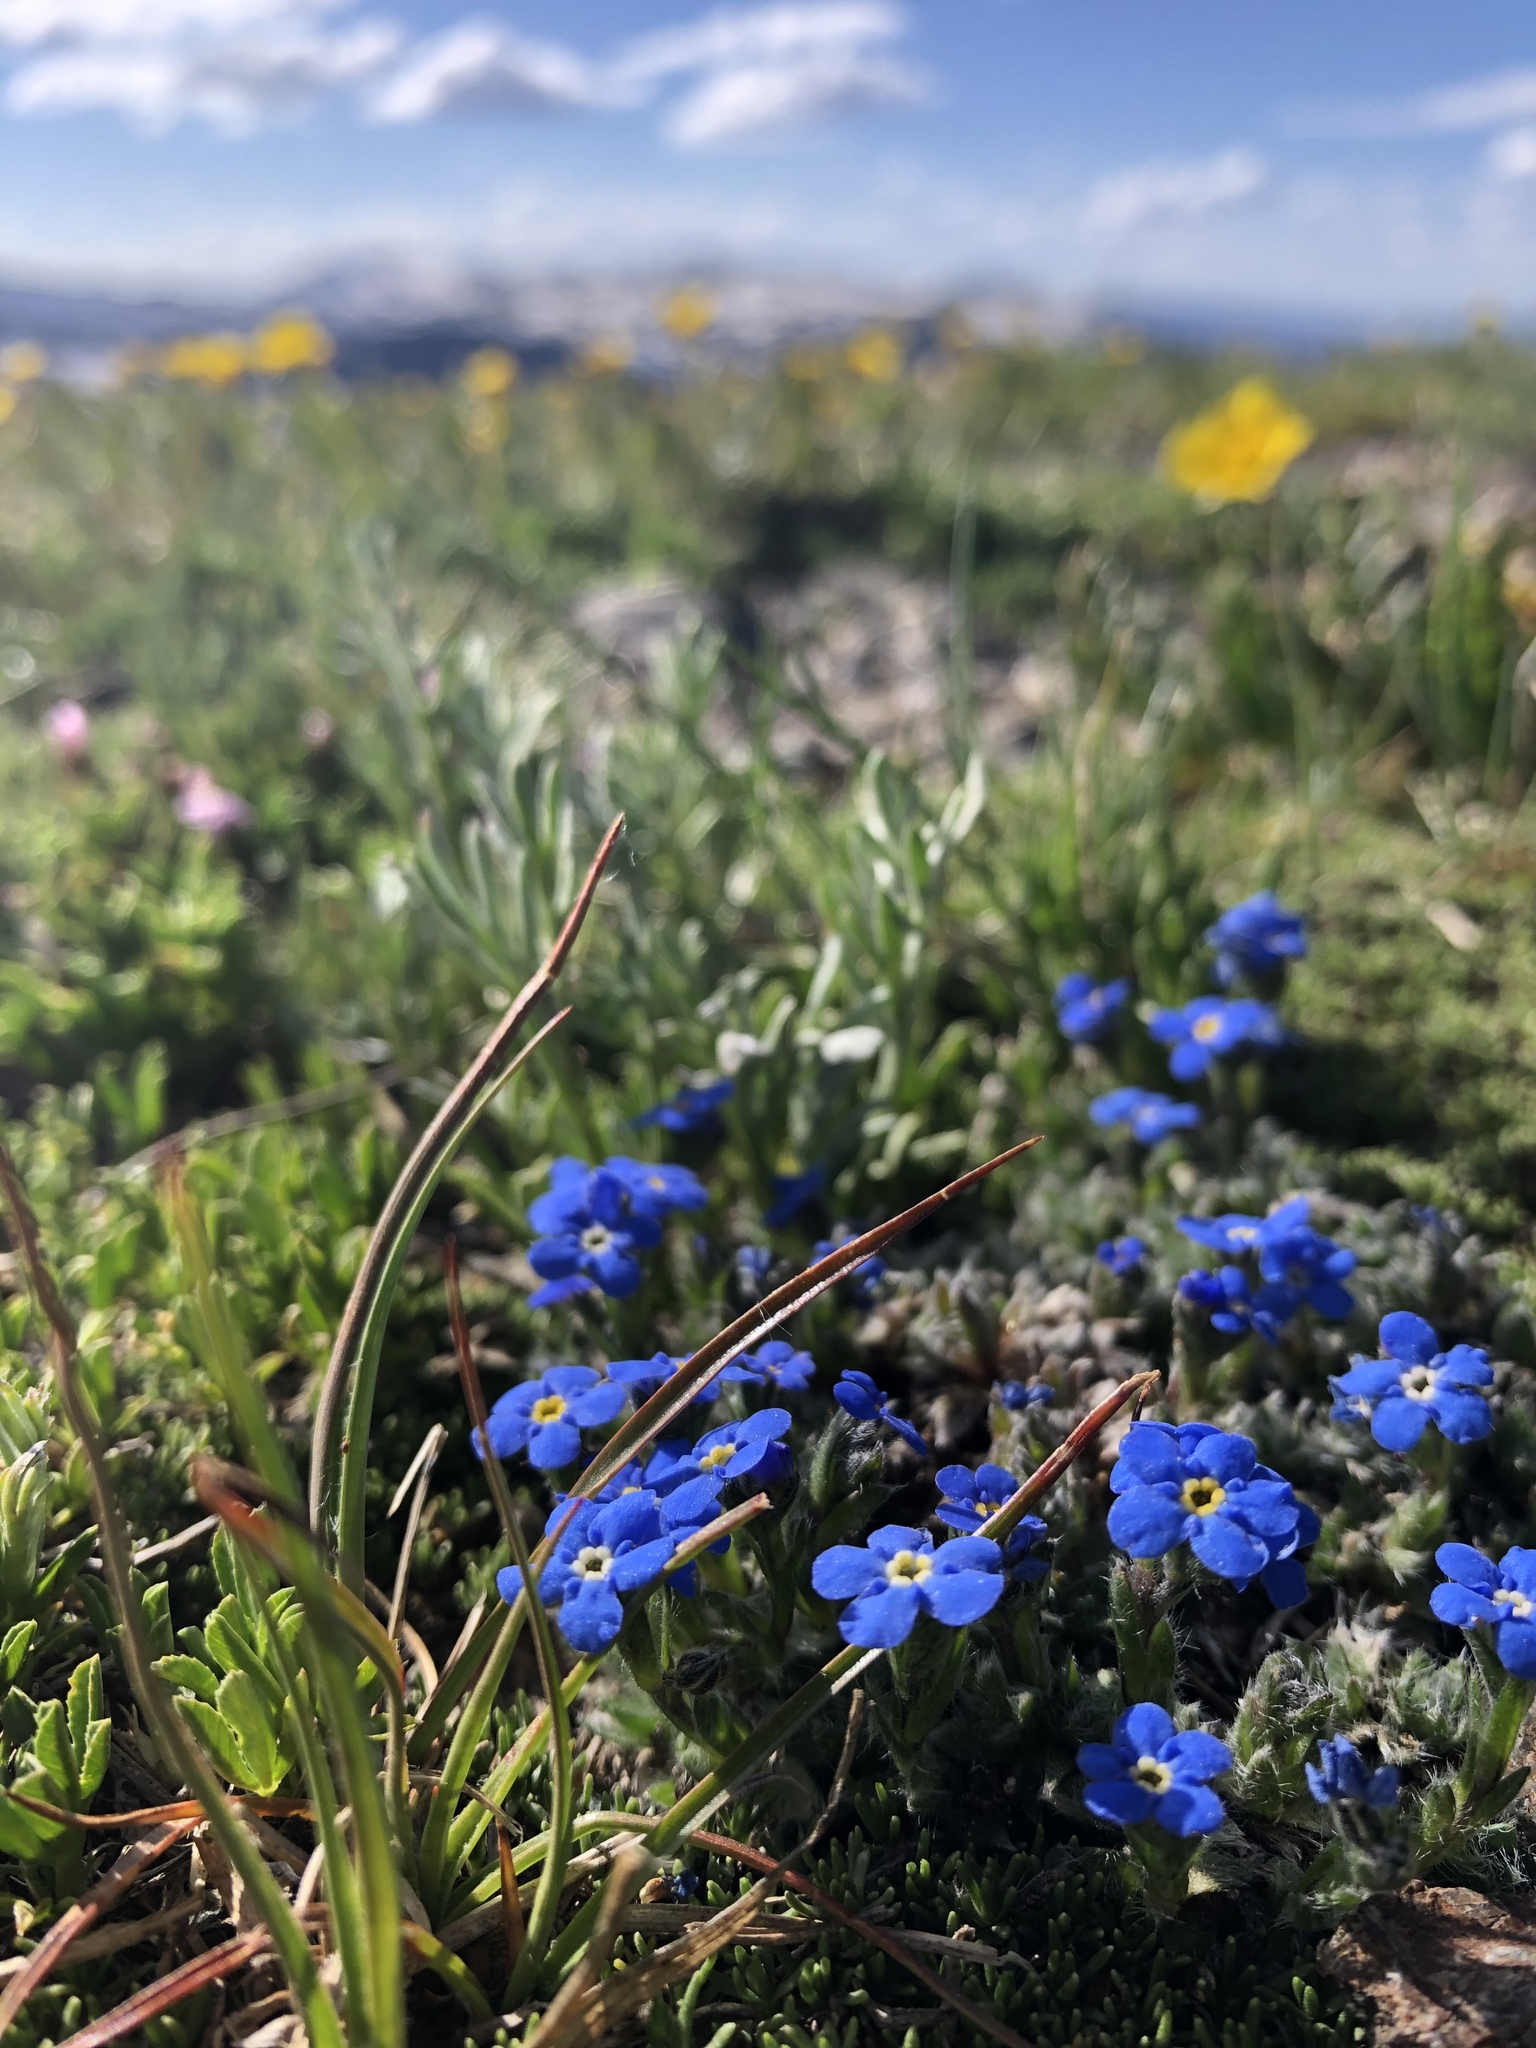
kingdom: Plantae
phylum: Tracheophyta
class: Magnoliopsida
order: Boraginales
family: Boraginaceae
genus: Eritrichium
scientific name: Eritrichium argenteum
